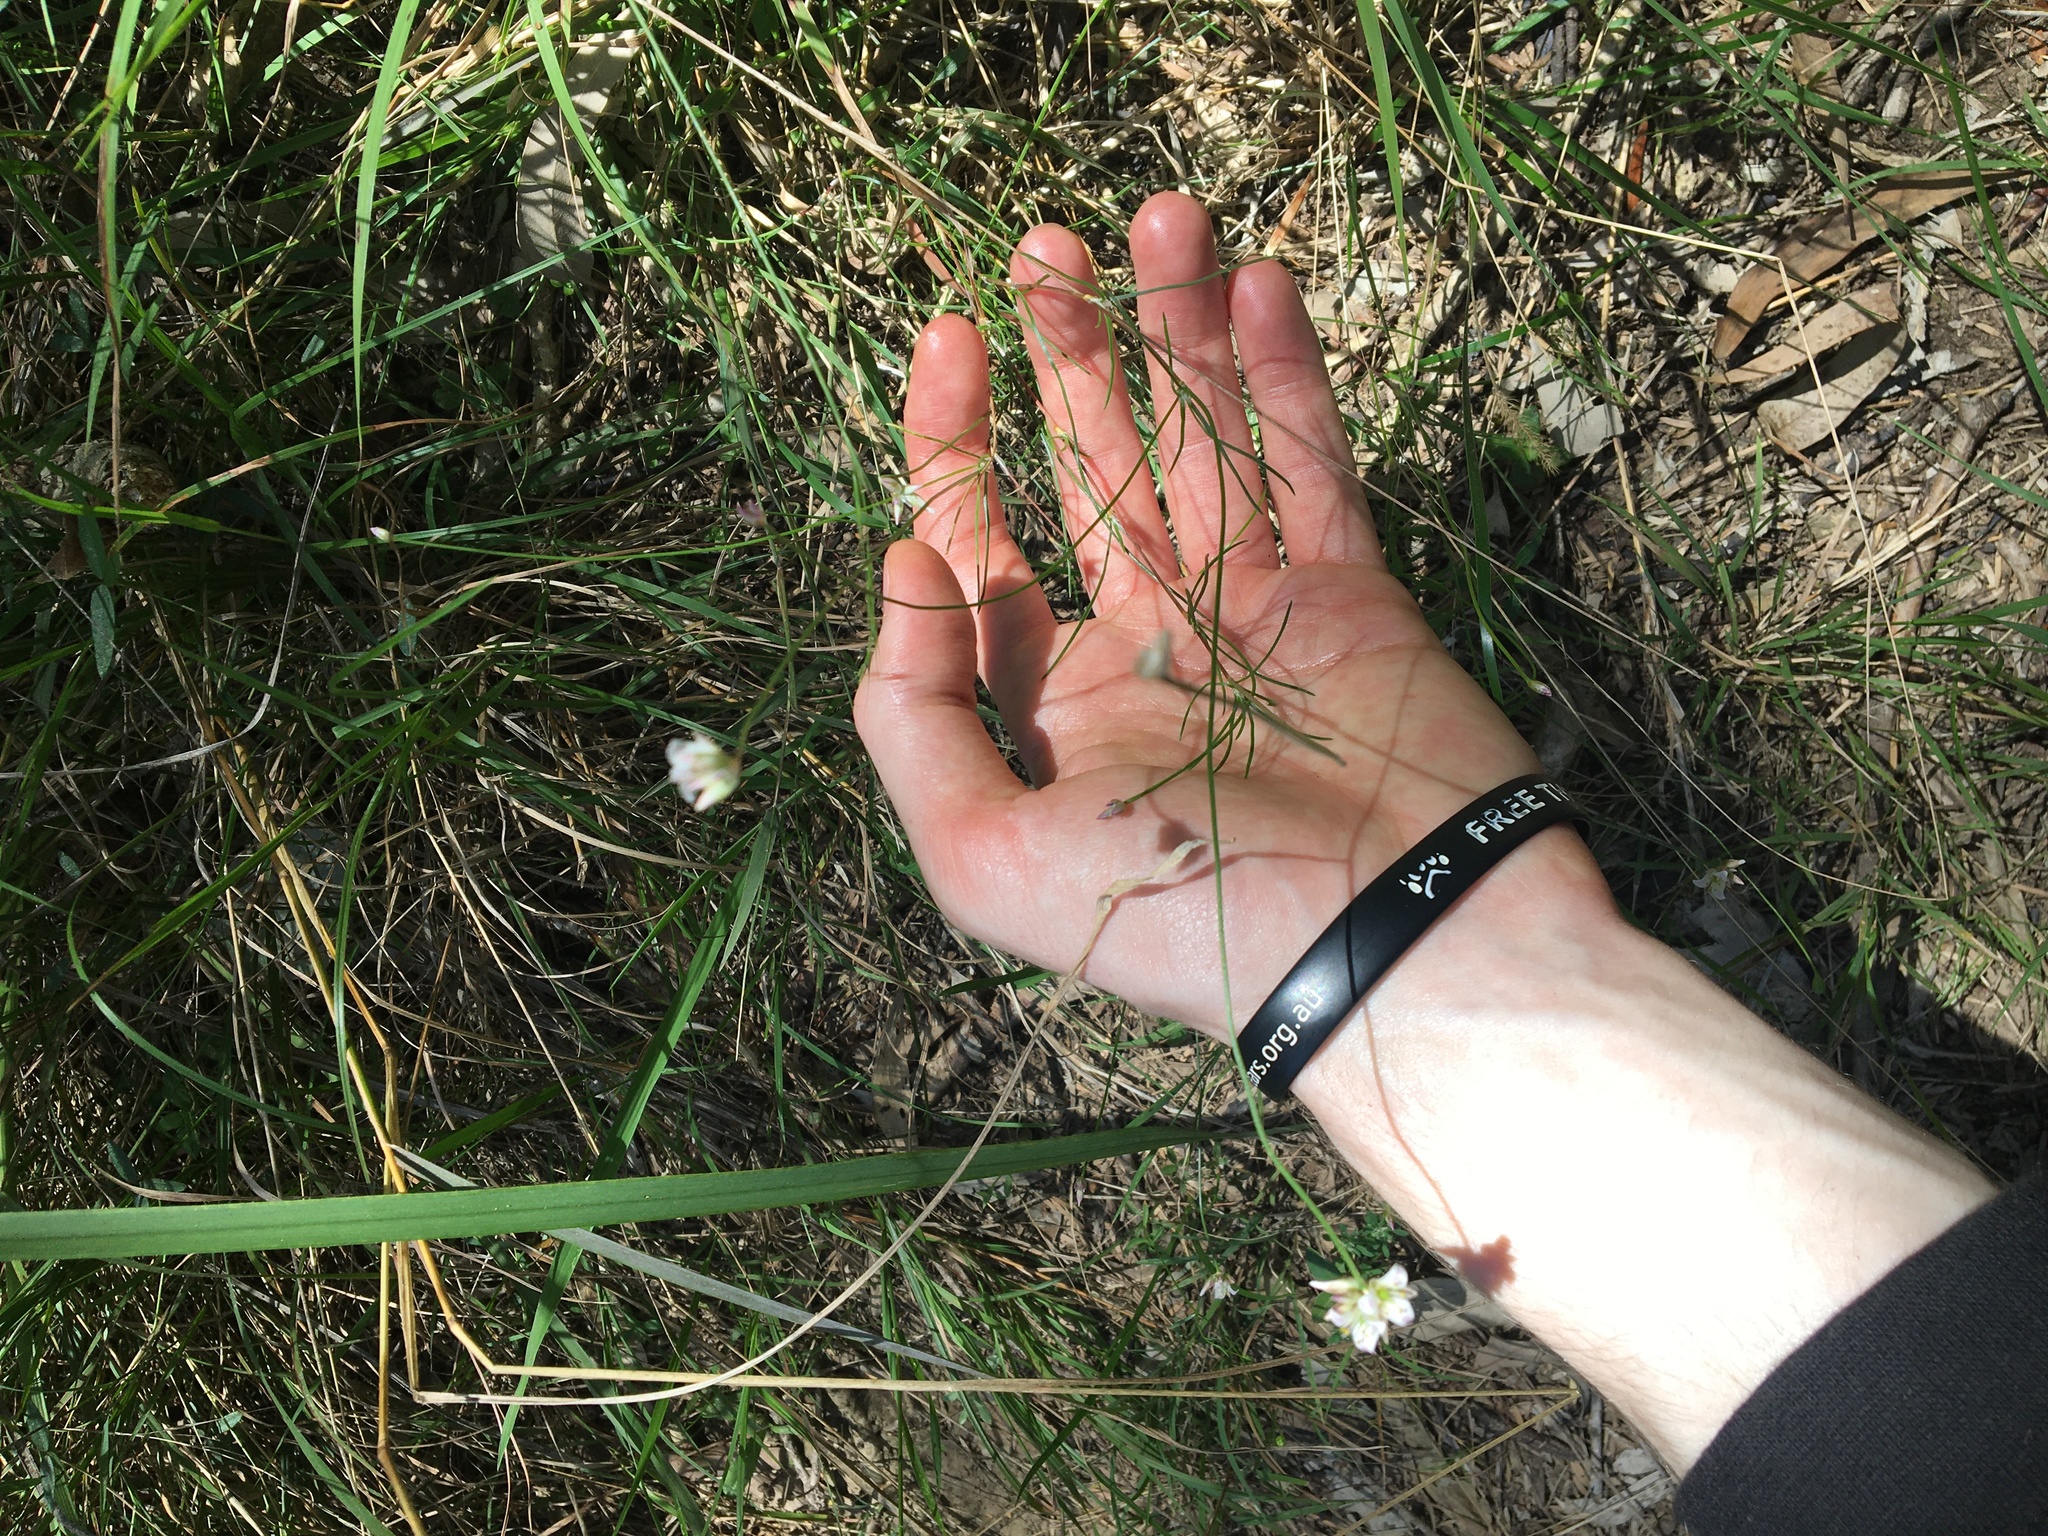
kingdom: Plantae
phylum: Tracheophyta
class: Liliopsida
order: Asparagales
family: Asparagaceae
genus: Laxmannia
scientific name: Laxmannia gracilis
